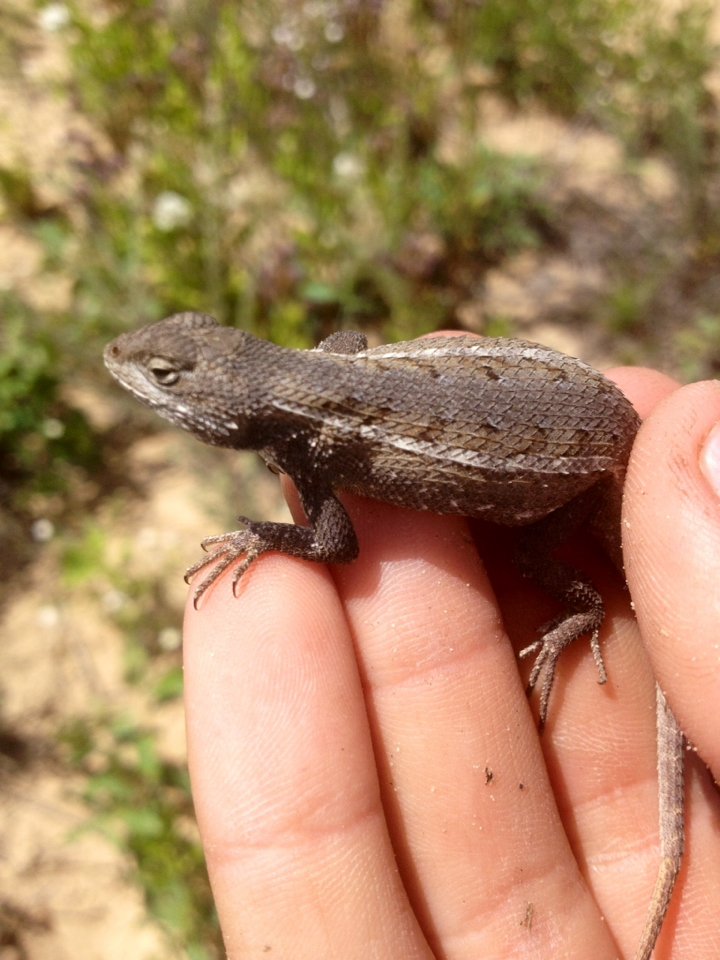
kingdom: Animalia
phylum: Chordata
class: Squamata
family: Phrynosomatidae
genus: Sceloporus
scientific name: Sceloporus consobrinus
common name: Southern prairie lizard
